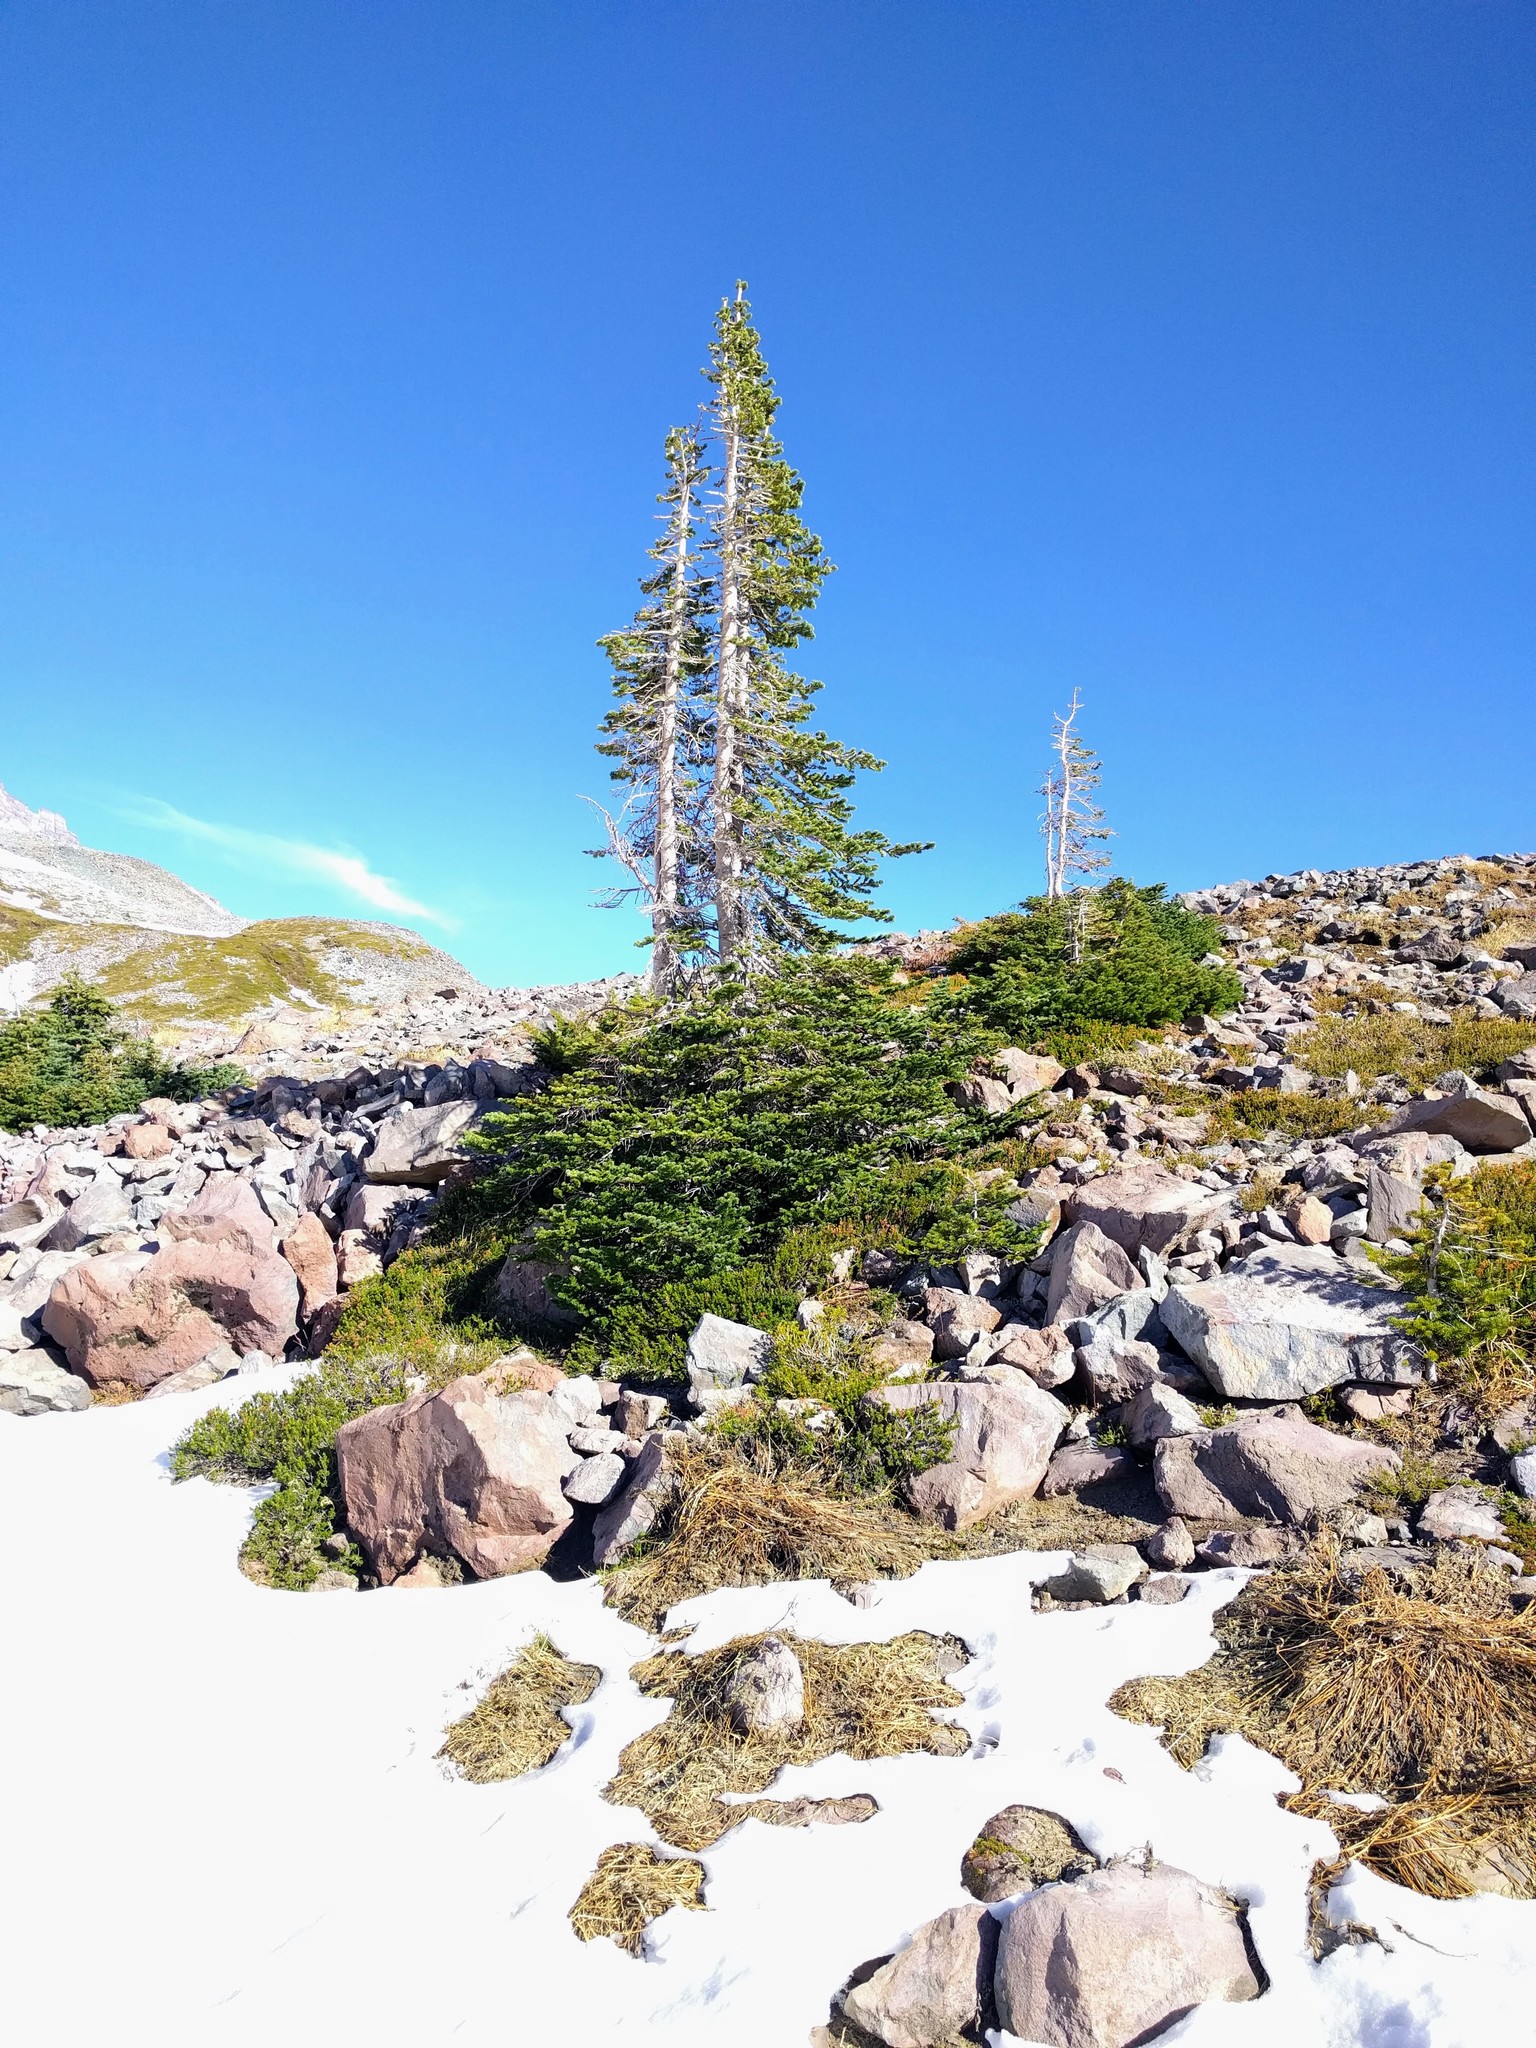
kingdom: Plantae
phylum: Tracheophyta
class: Pinopsida
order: Pinales
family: Pinaceae
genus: Abies
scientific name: Abies lasiocarpa
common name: Subalpine fir
